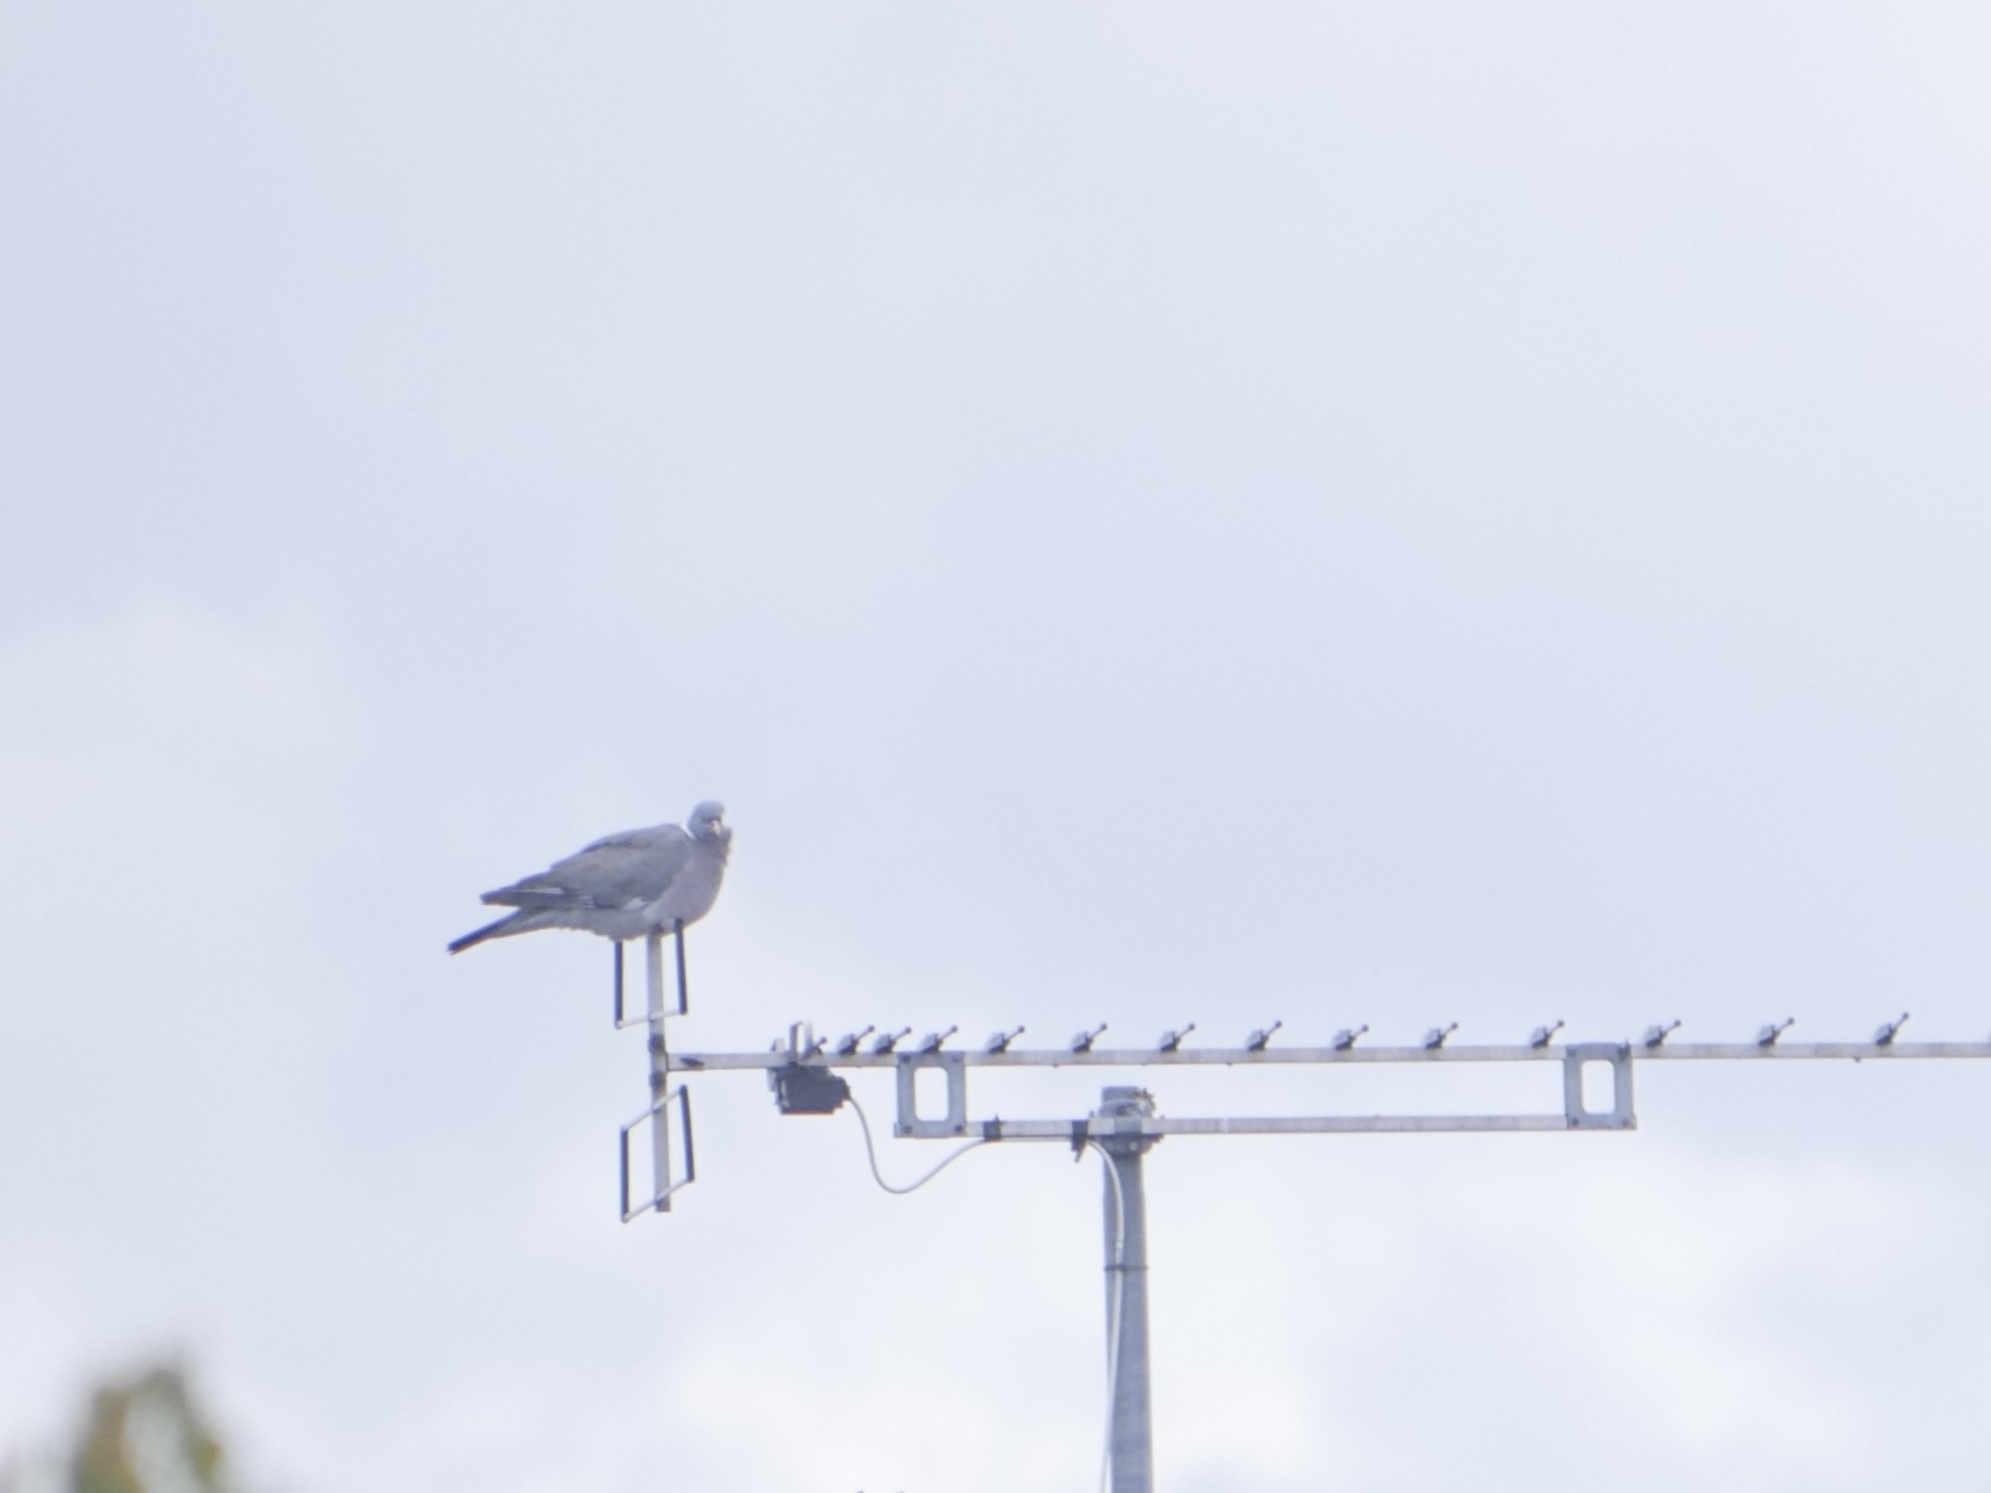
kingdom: Animalia
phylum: Chordata
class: Aves
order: Columbiformes
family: Columbidae
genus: Columba
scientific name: Columba palumbus
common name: Common wood pigeon
